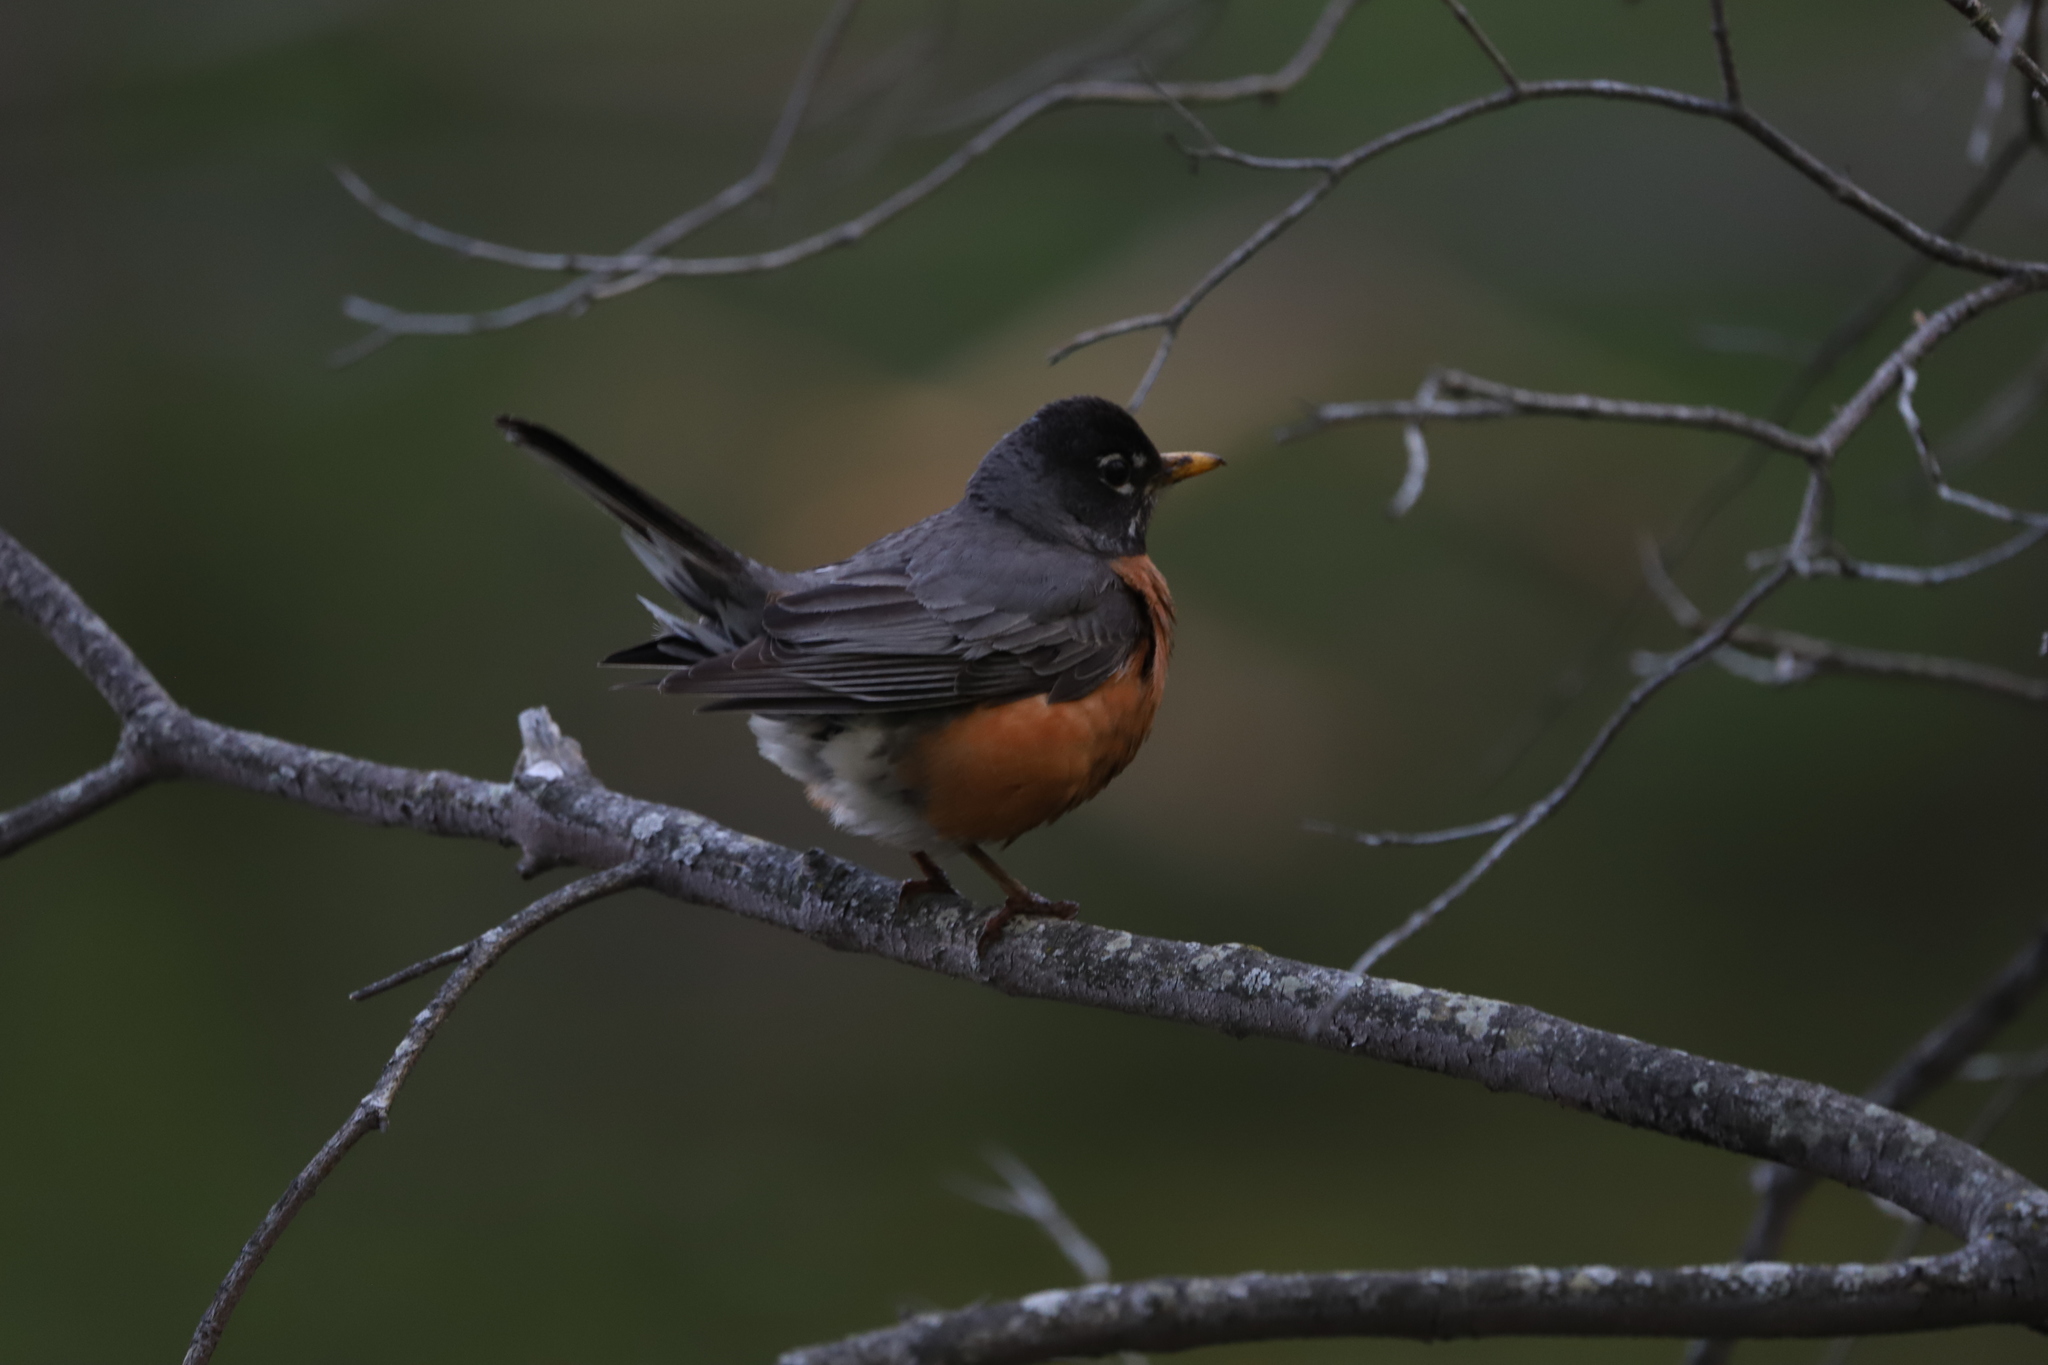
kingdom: Animalia
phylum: Chordata
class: Aves
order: Passeriformes
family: Turdidae
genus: Turdus
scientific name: Turdus migratorius
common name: American robin
